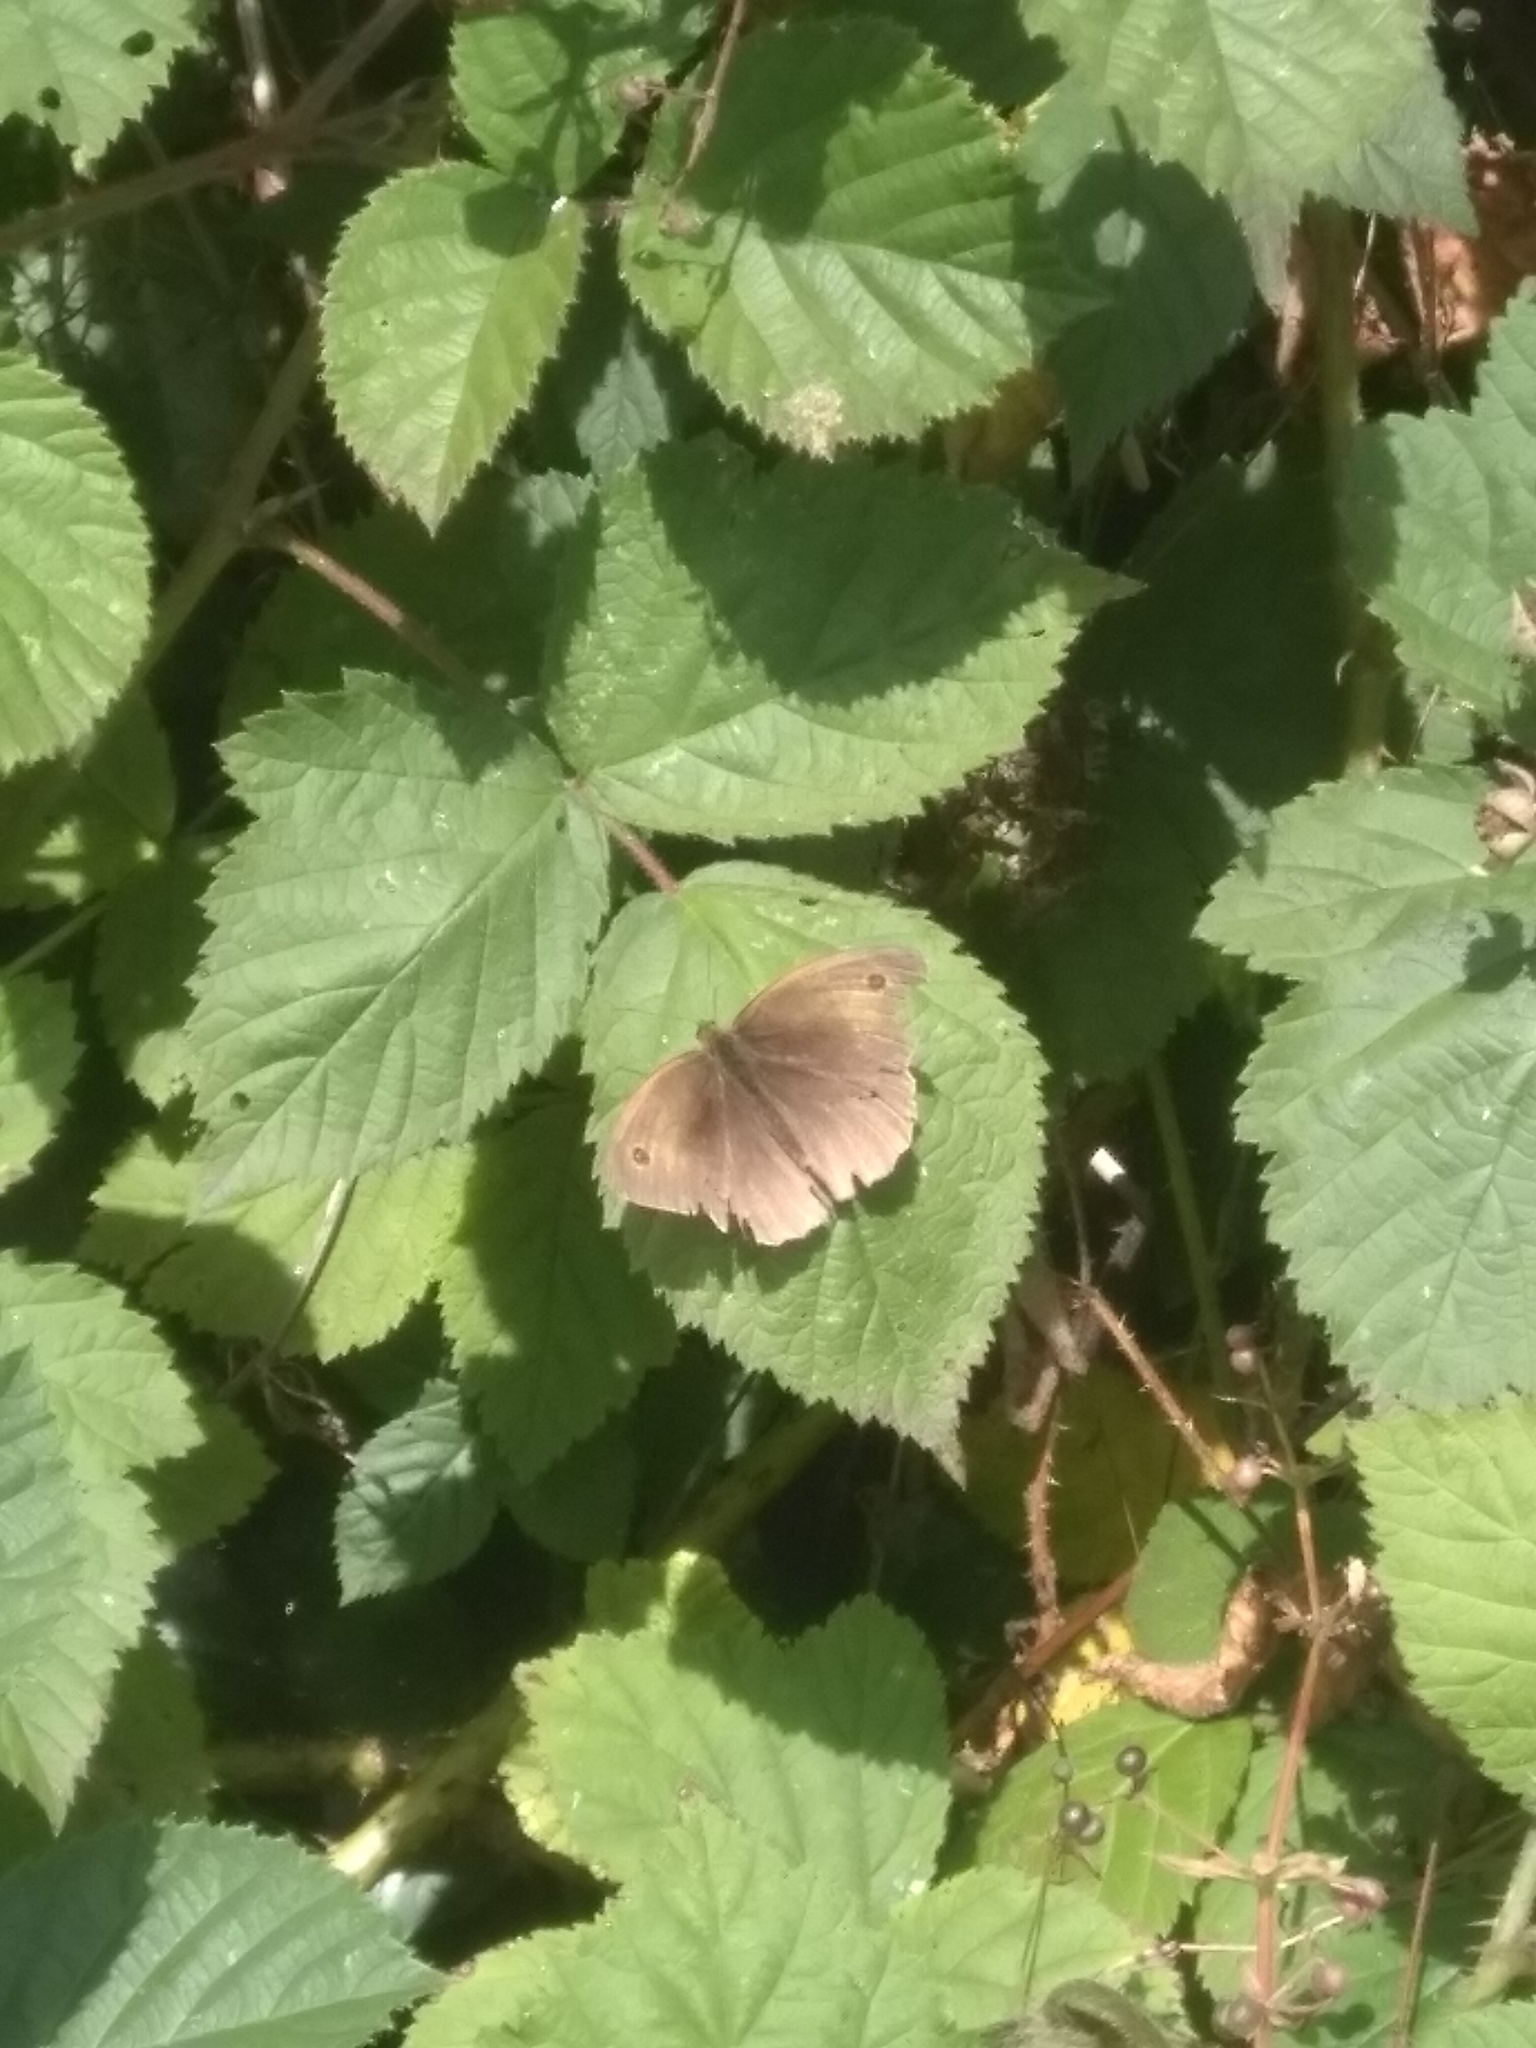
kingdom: Animalia
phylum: Arthropoda
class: Insecta
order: Lepidoptera
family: Nymphalidae
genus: Maniola
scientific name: Maniola jurtina
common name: Meadow brown
